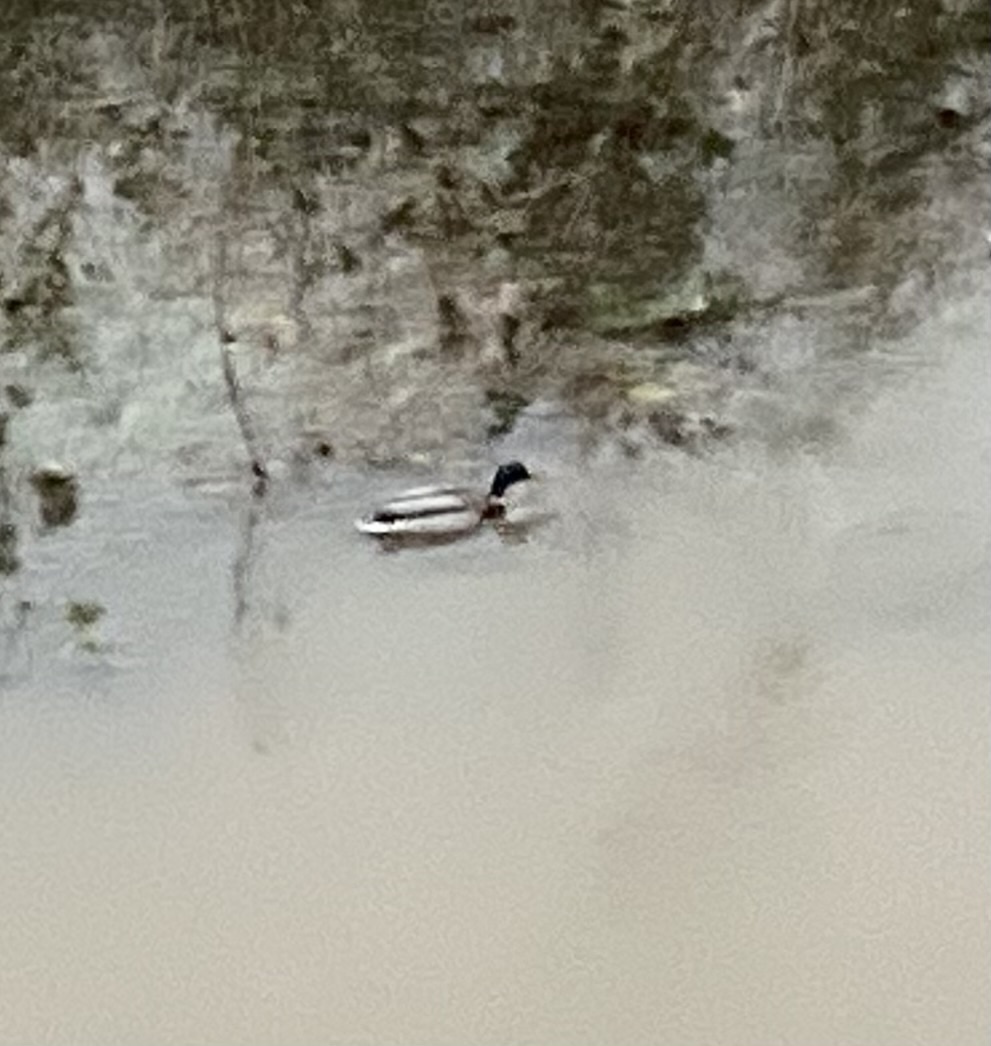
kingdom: Animalia
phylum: Chordata
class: Aves
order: Anseriformes
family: Anatidae
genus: Anas
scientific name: Anas platyrhynchos
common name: Mallard
